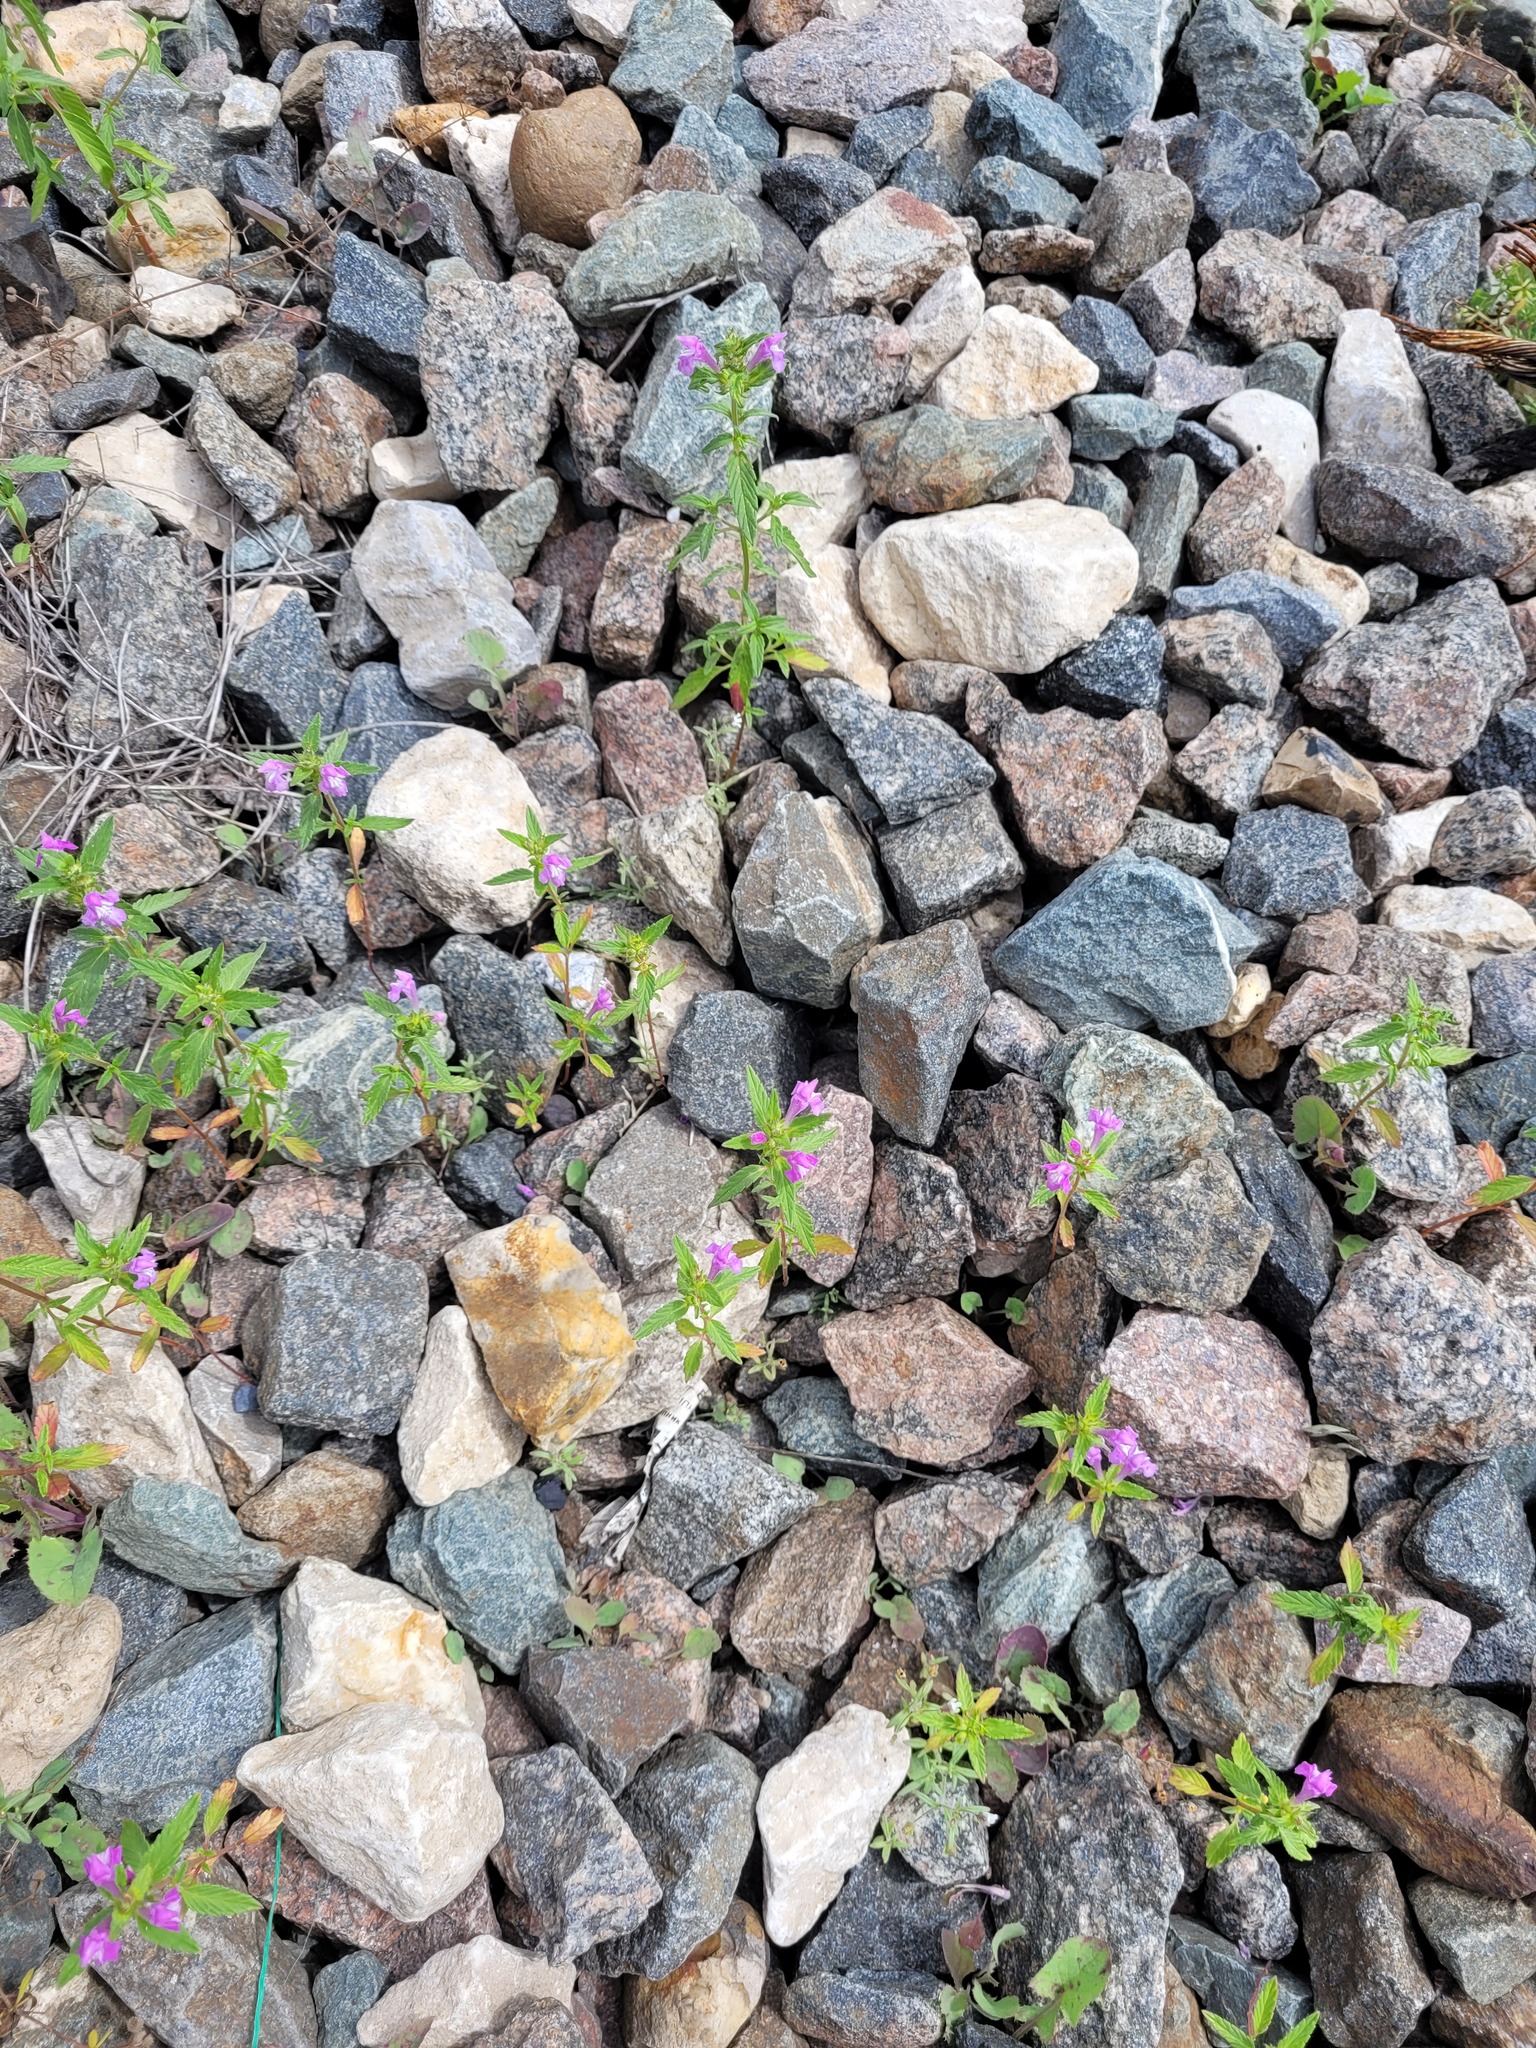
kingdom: Plantae
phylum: Tracheophyta
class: Magnoliopsida
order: Lamiales
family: Lamiaceae
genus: Galeopsis
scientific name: Galeopsis ladanum
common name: Broad-leaved hemp-nettle
